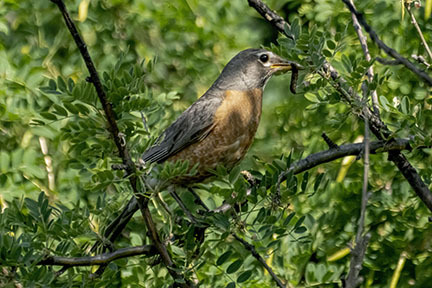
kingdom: Animalia
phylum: Chordata
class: Aves
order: Passeriformes
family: Turdidae
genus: Turdus
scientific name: Turdus migratorius
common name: American robin
